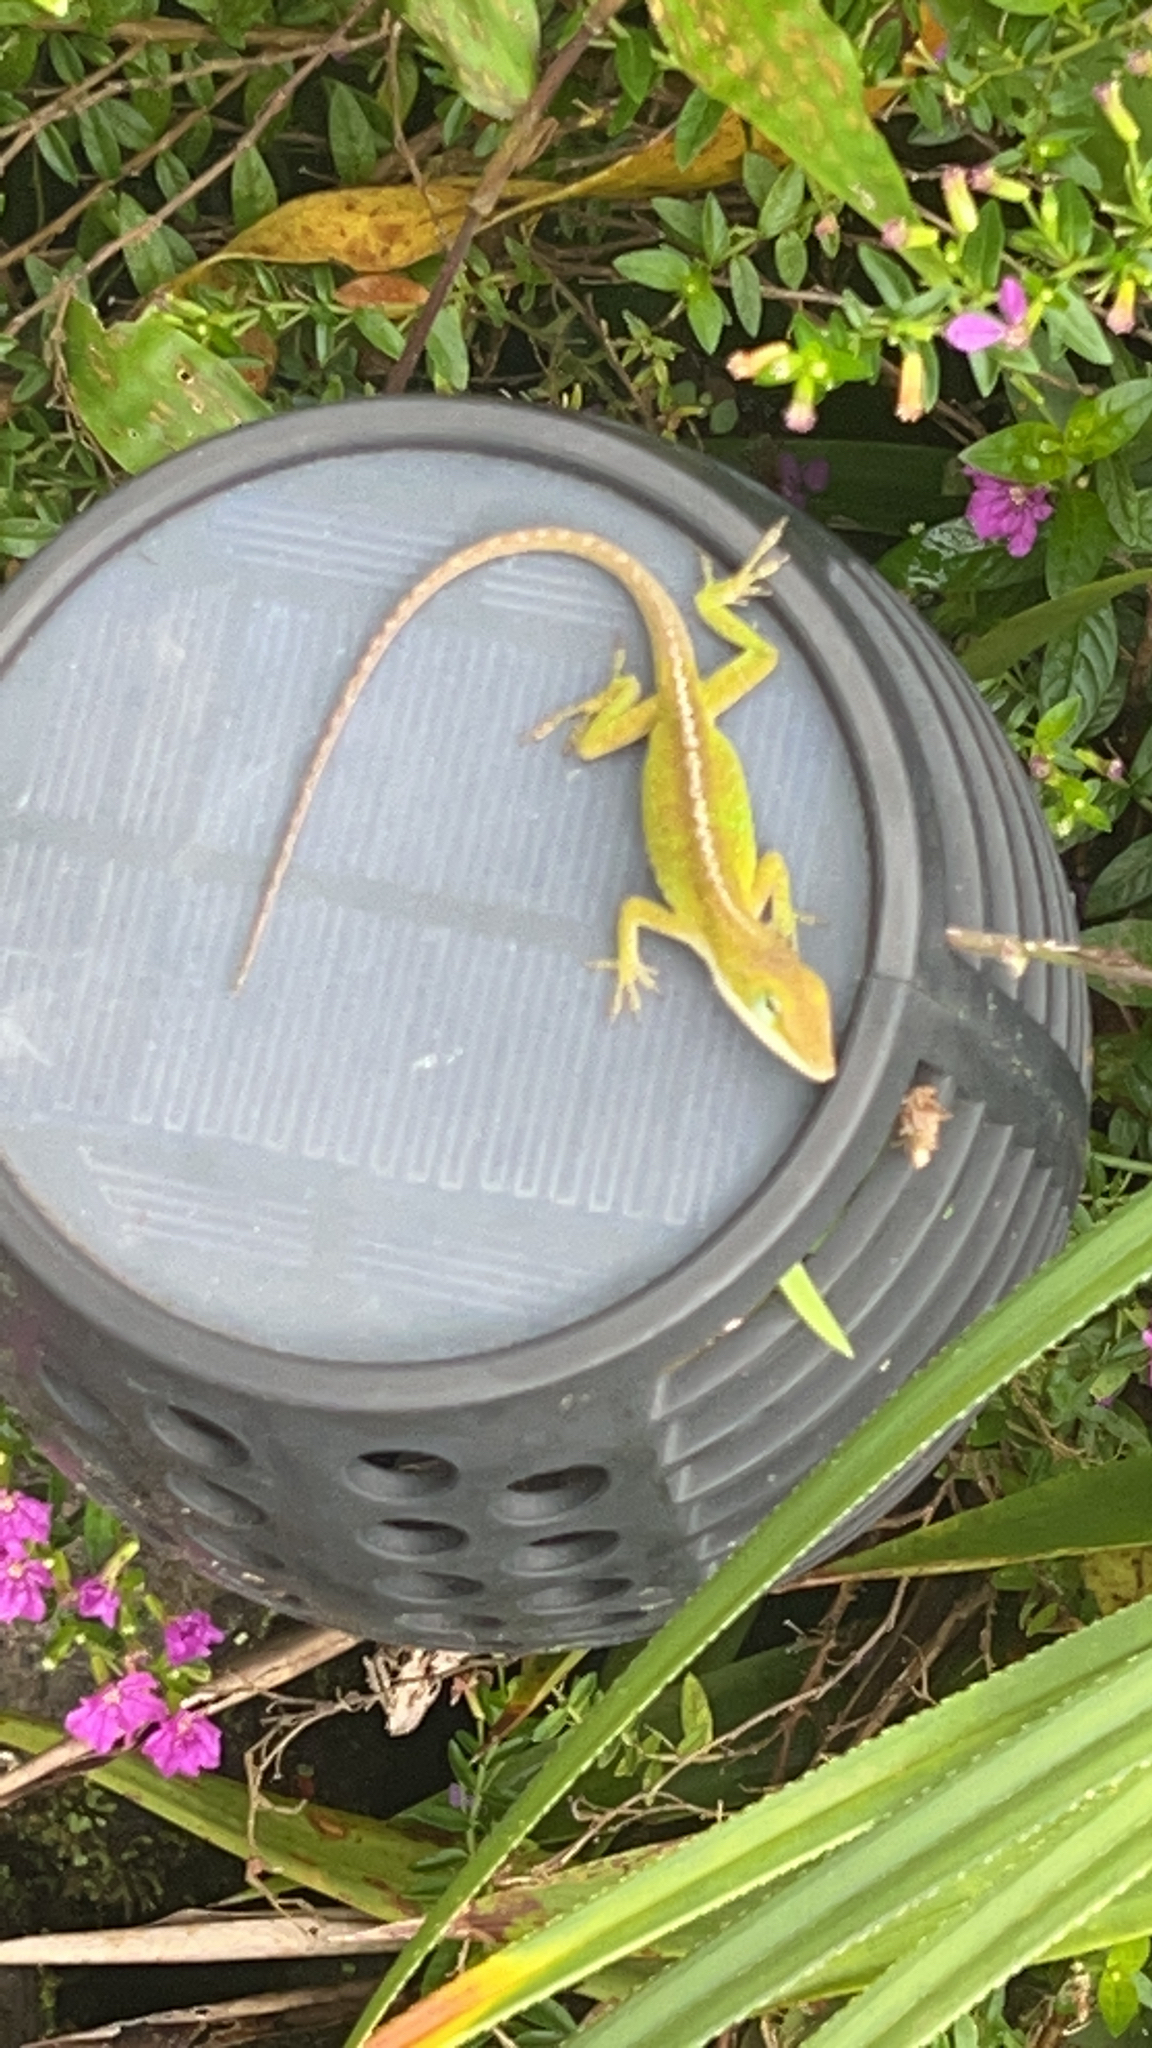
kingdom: Animalia
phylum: Chordata
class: Squamata
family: Dactyloidae
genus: Anolis
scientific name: Anolis carolinensis
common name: Green anole
